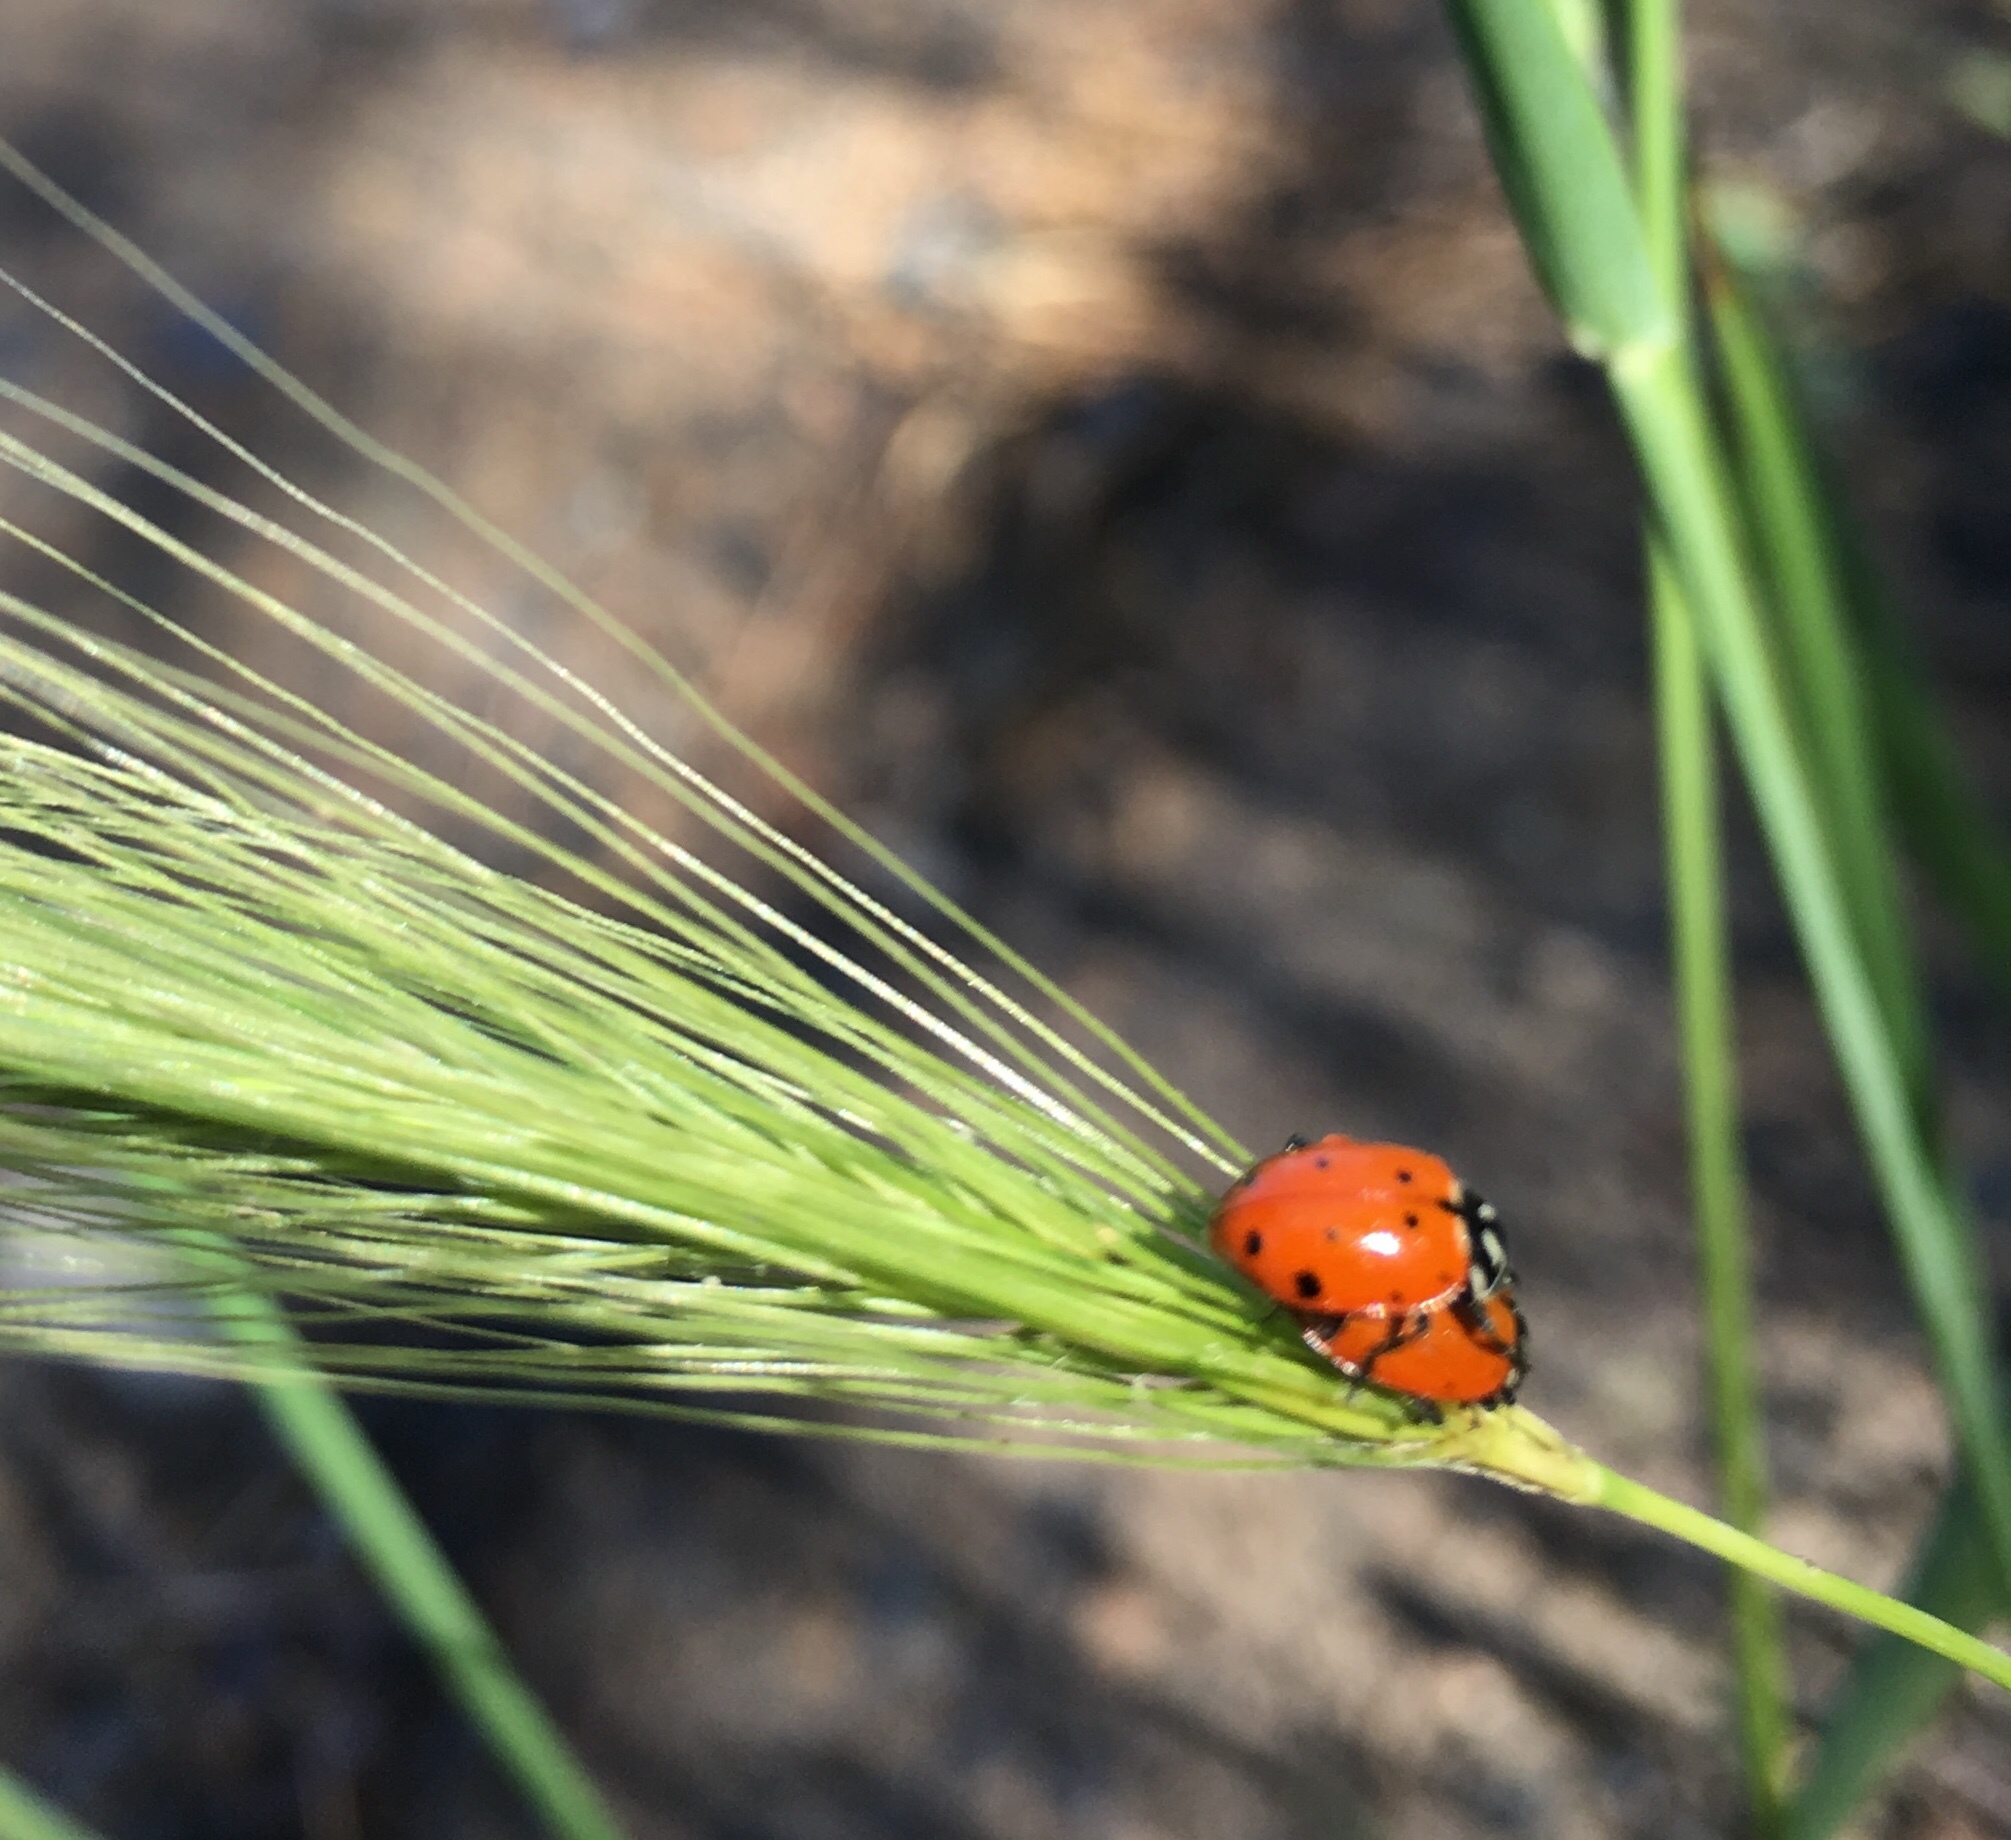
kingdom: Animalia
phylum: Arthropoda
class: Insecta
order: Coleoptera
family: Coccinellidae
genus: Hippodamia
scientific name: Hippodamia convergens
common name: Convergent lady beetle
